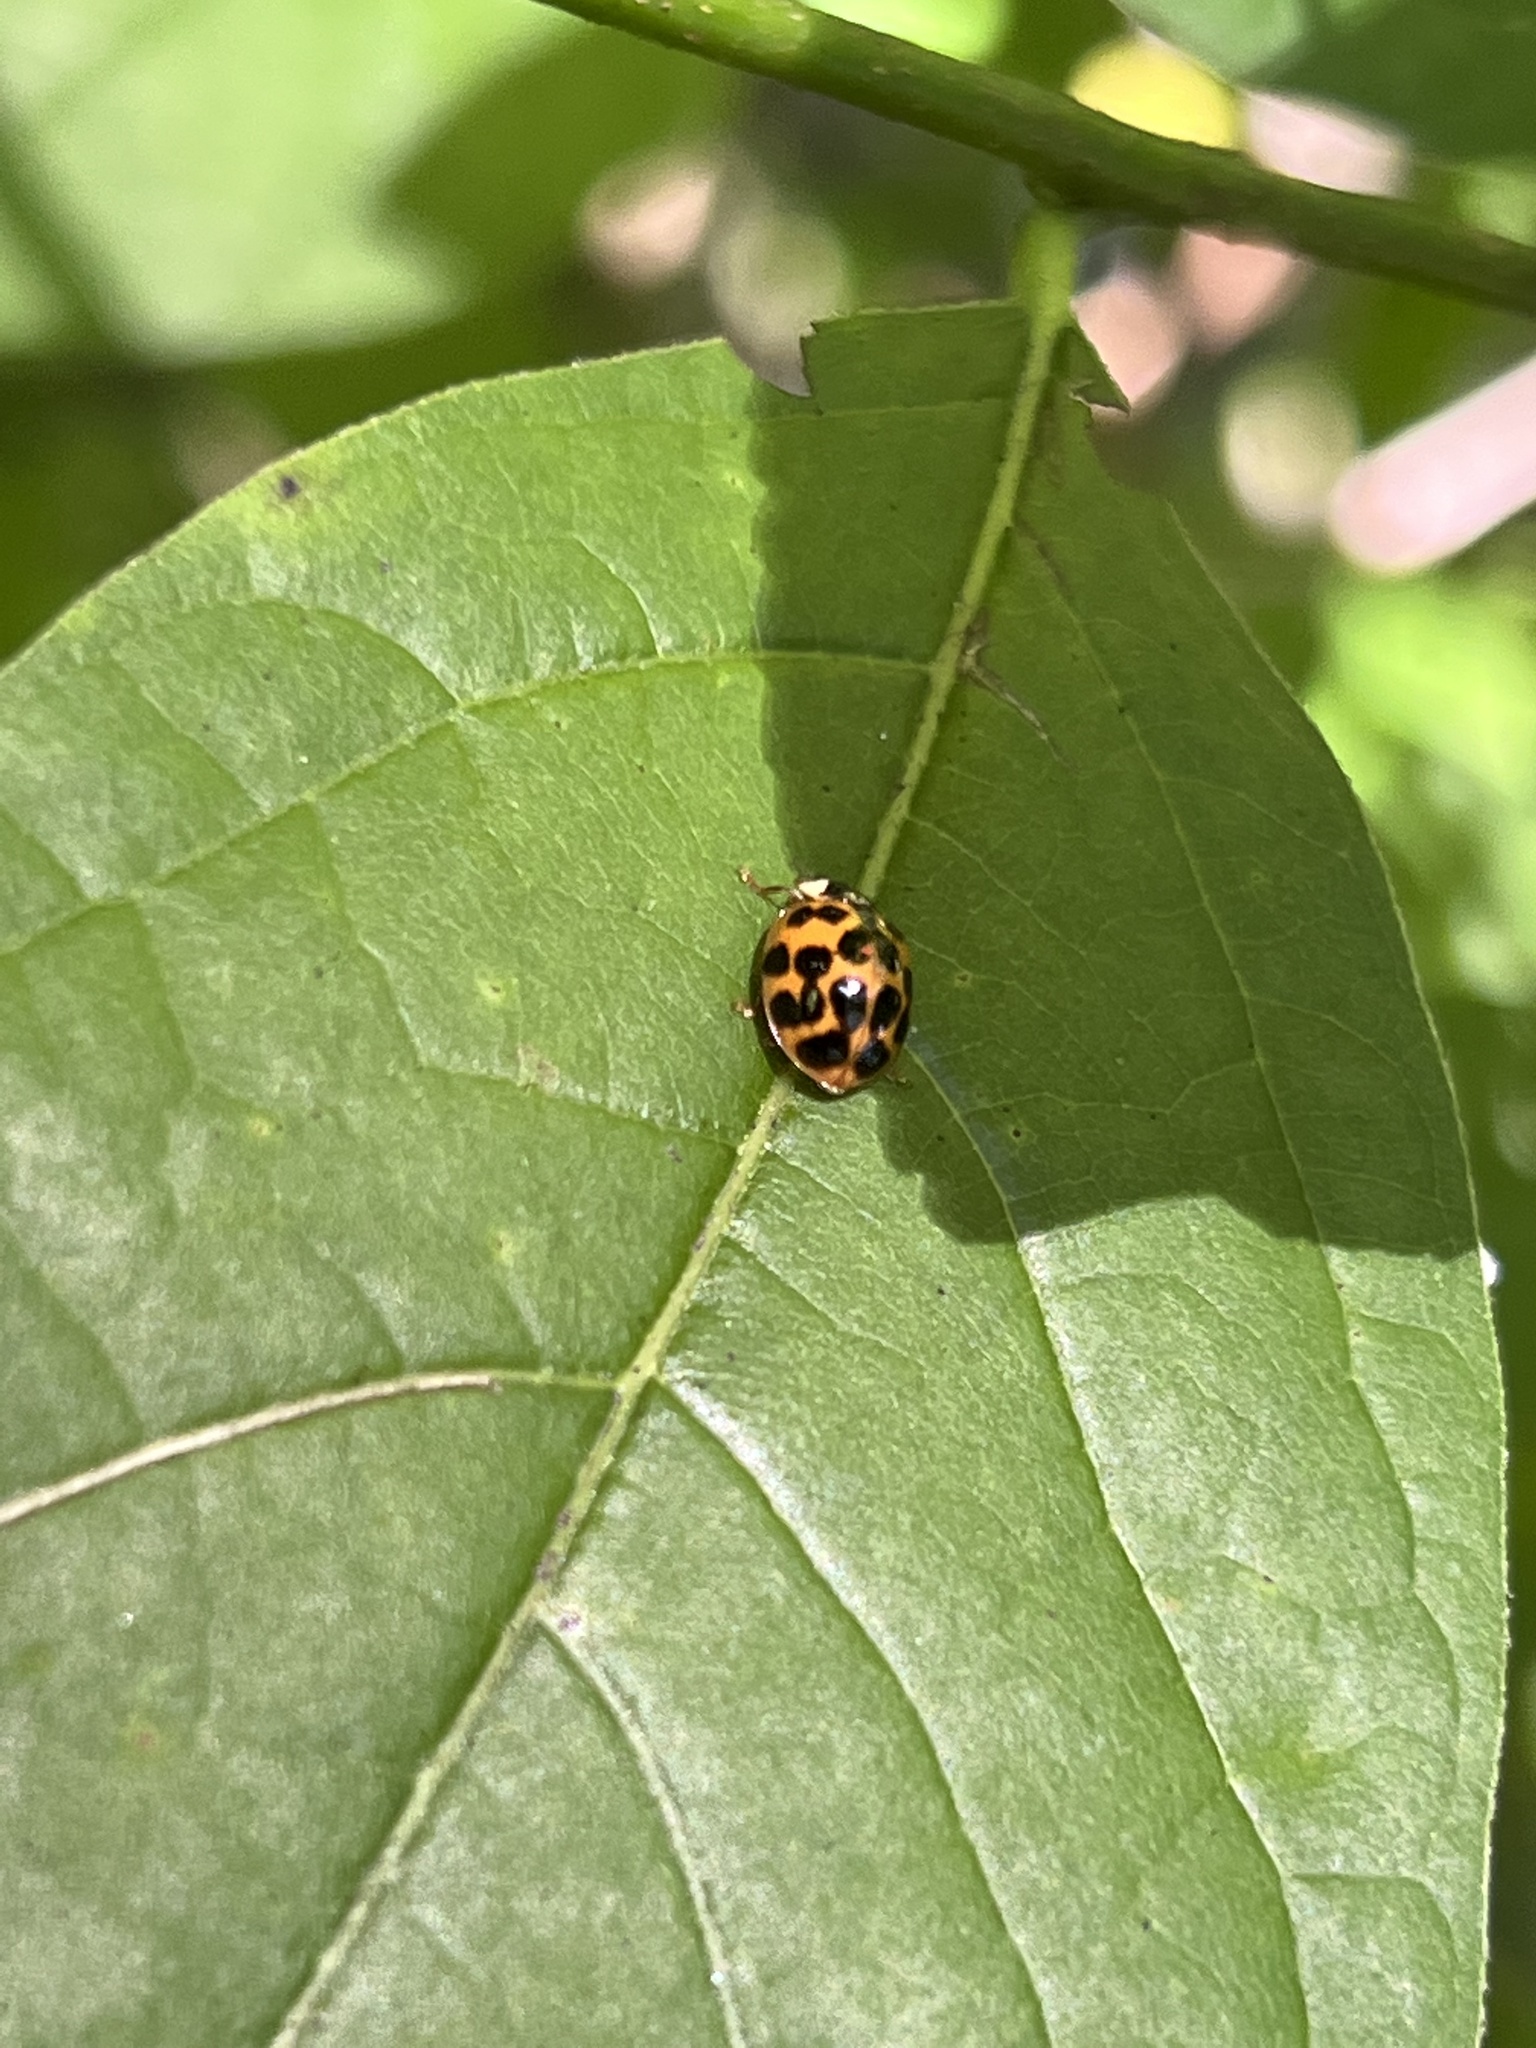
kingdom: Animalia
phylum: Arthropoda
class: Insecta
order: Coleoptera
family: Coccinellidae
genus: Harmonia
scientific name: Harmonia axyridis
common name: Harlequin ladybird
